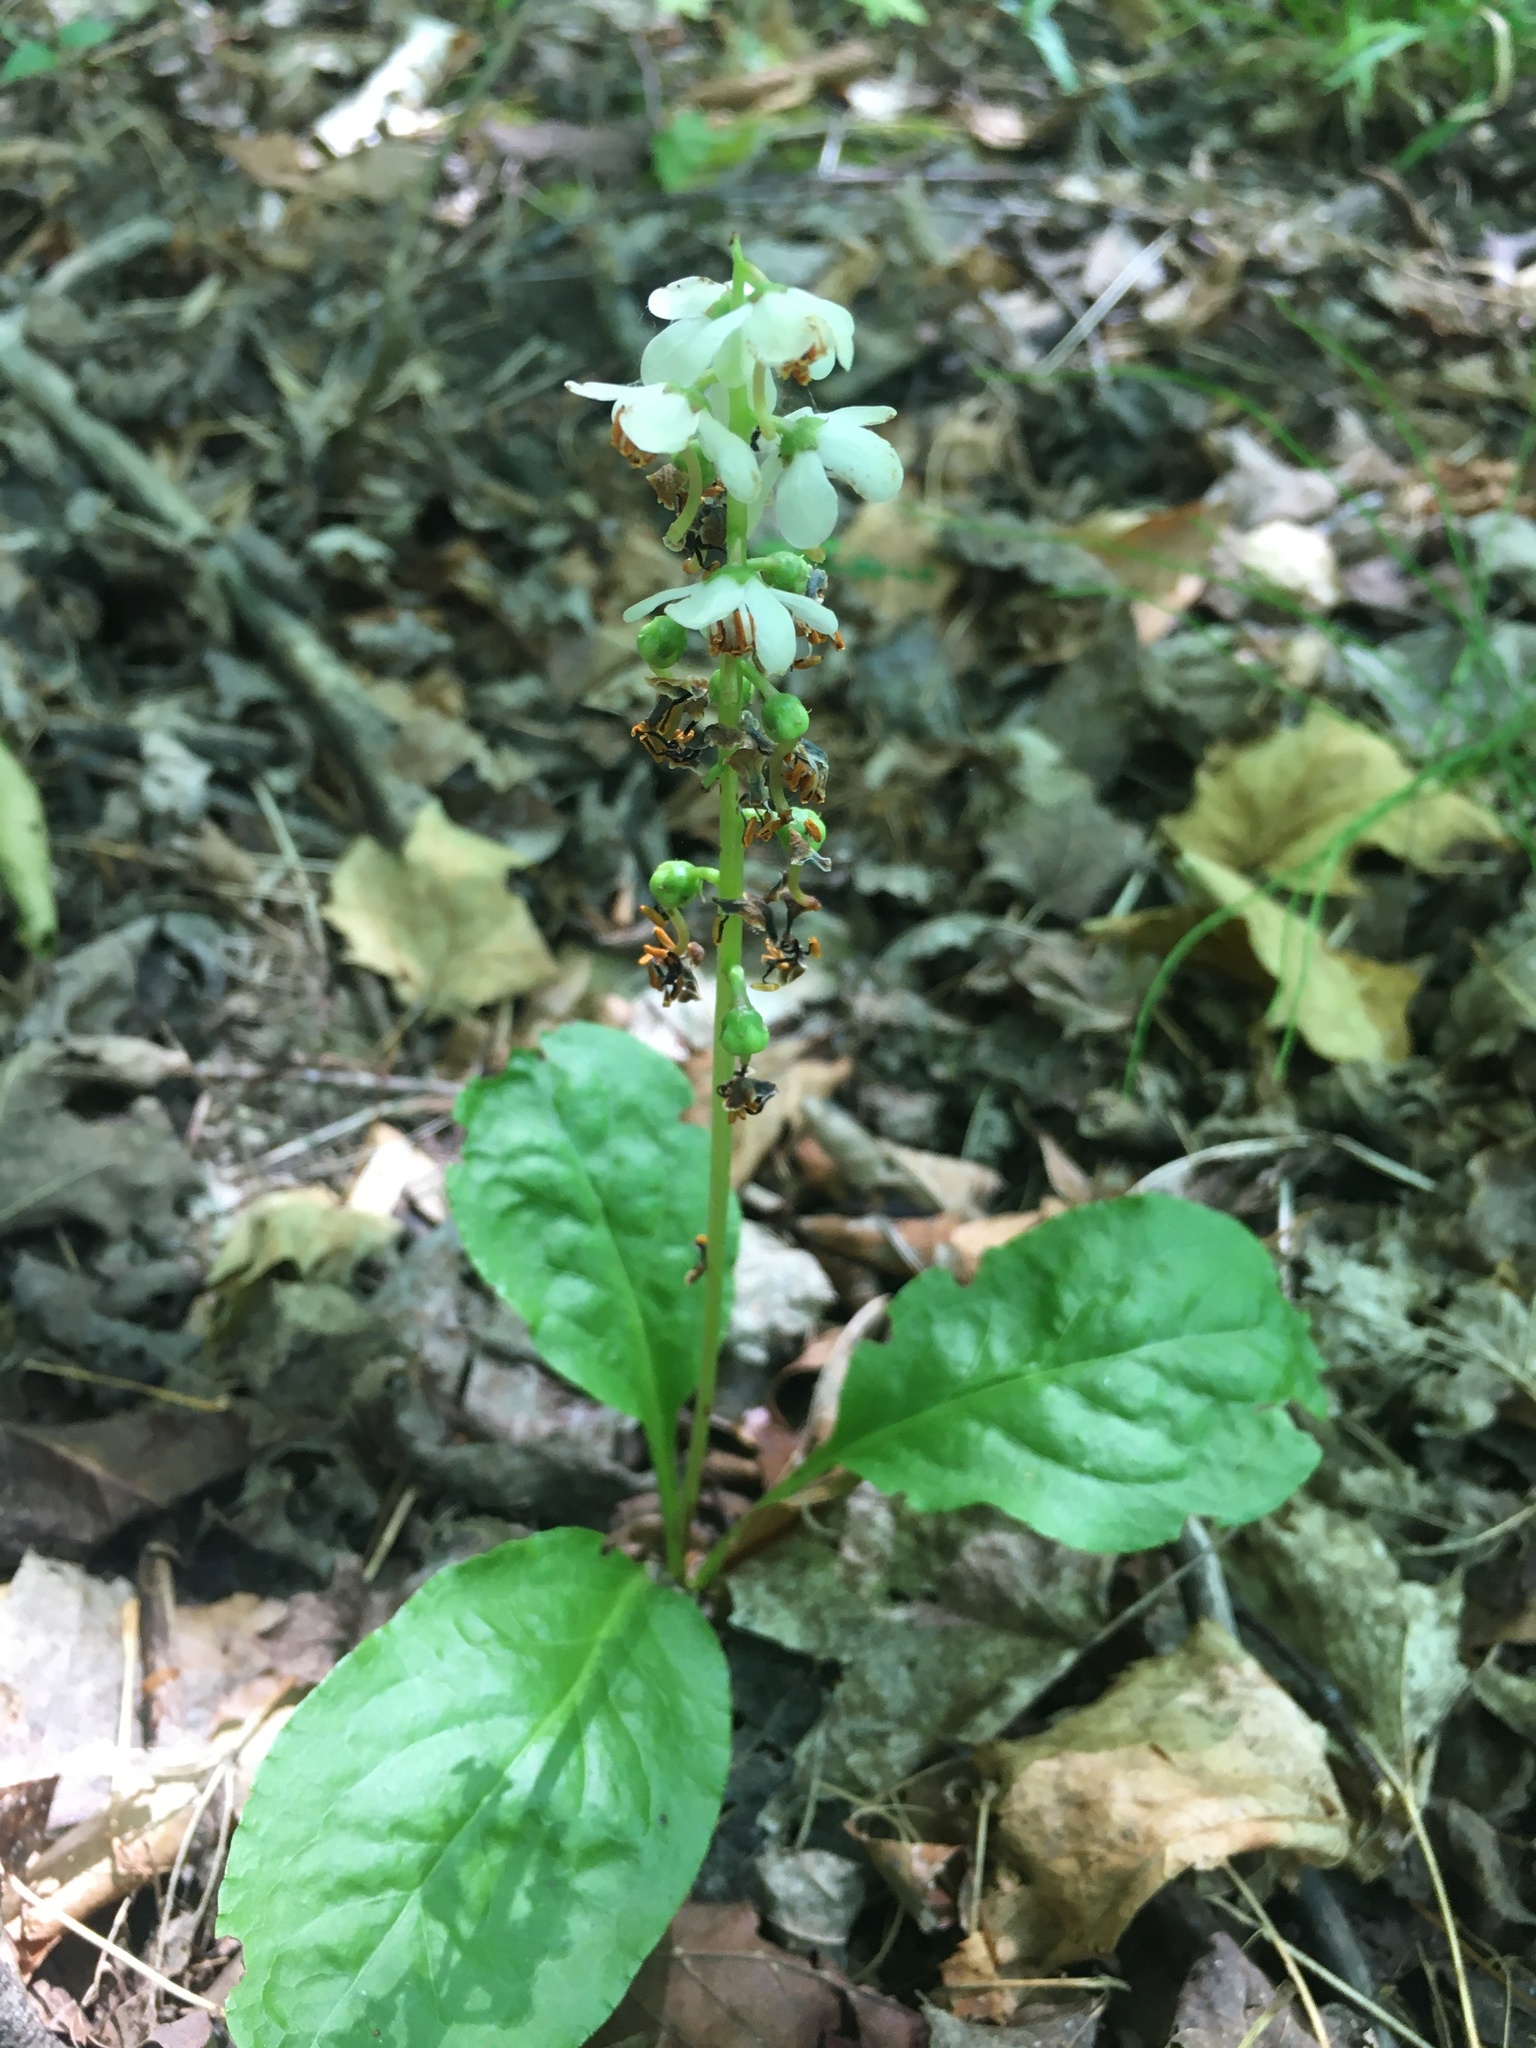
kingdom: Plantae
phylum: Tracheophyta
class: Magnoliopsida
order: Ericales
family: Ericaceae
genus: Pyrola
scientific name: Pyrola elliptica
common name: Shinleaf
